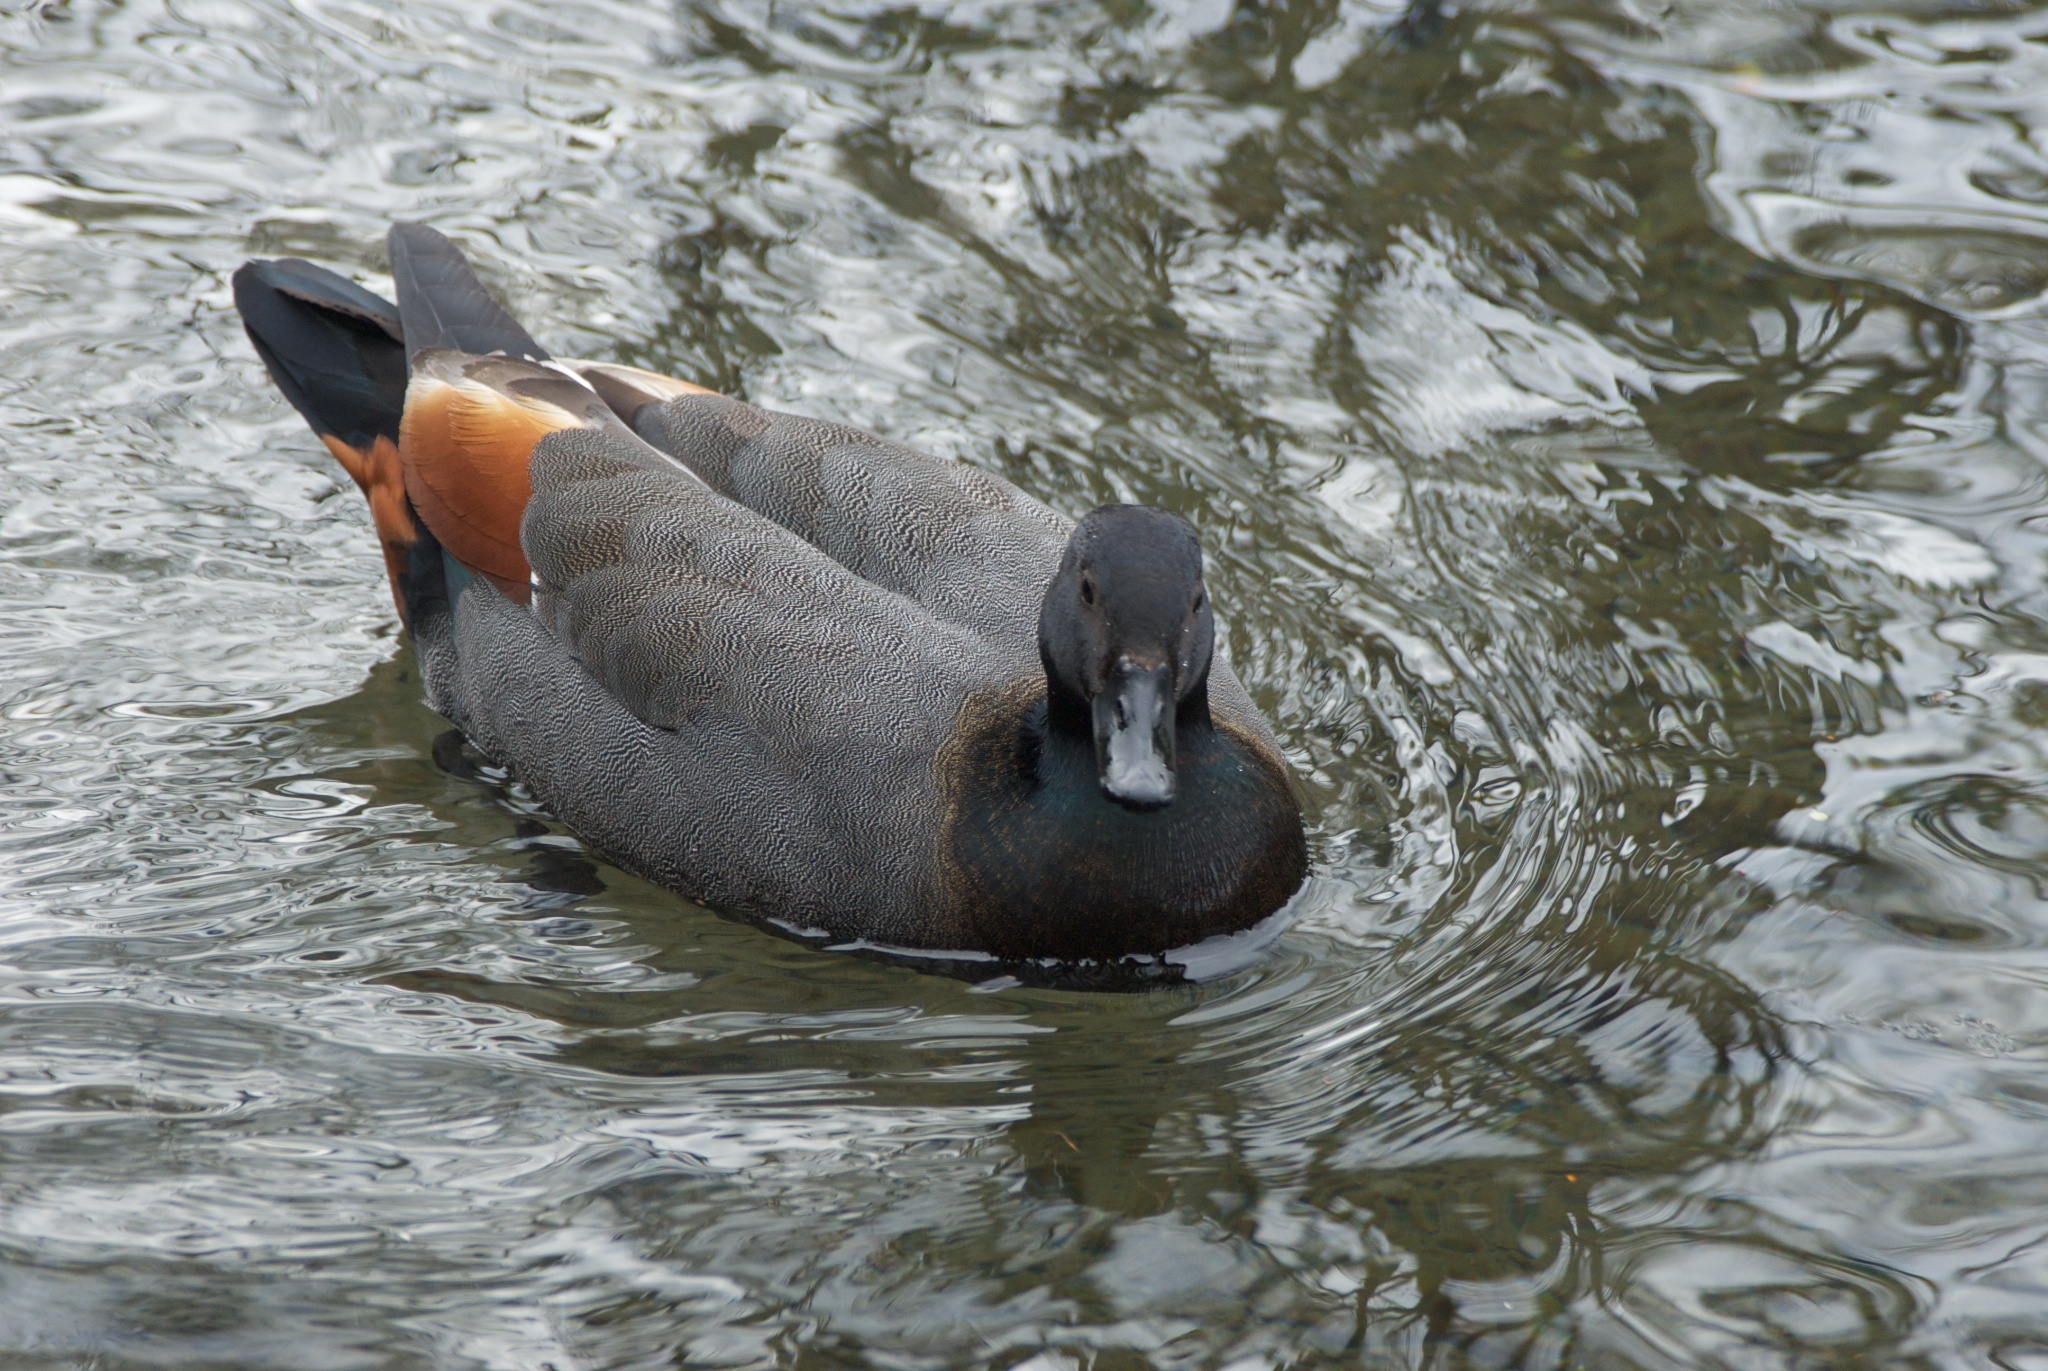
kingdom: Animalia
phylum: Chordata
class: Aves
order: Anseriformes
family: Anatidae
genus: Tadorna
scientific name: Tadorna variegata
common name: Paradise shelduck
